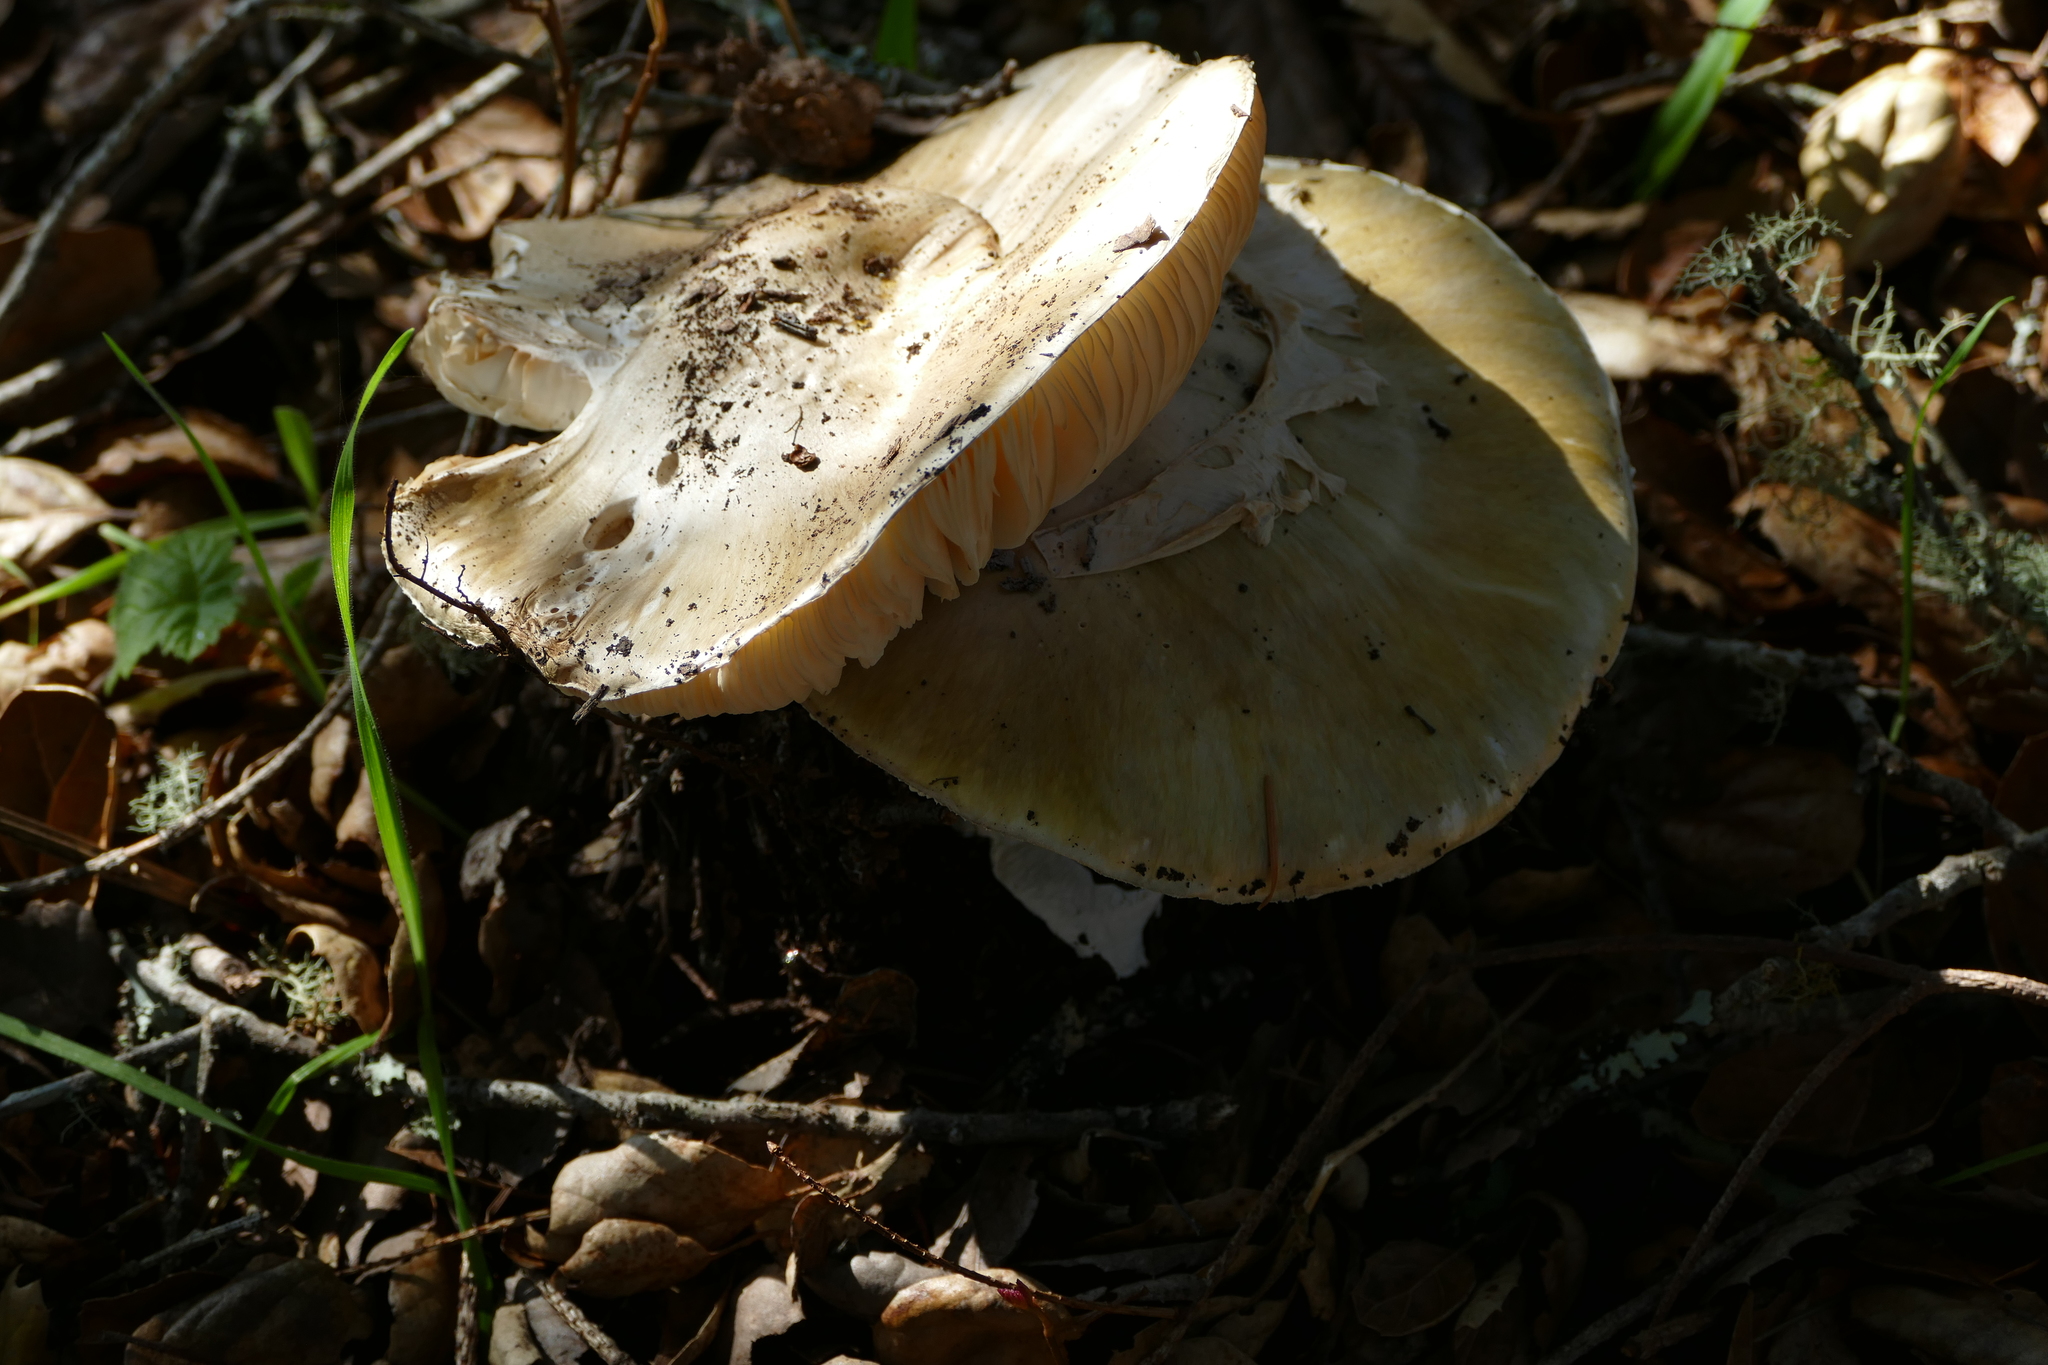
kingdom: Fungi
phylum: Basidiomycota
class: Agaricomycetes
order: Agaricales
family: Amanitaceae
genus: Amanita
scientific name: Amanita phalloides
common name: Death cap
